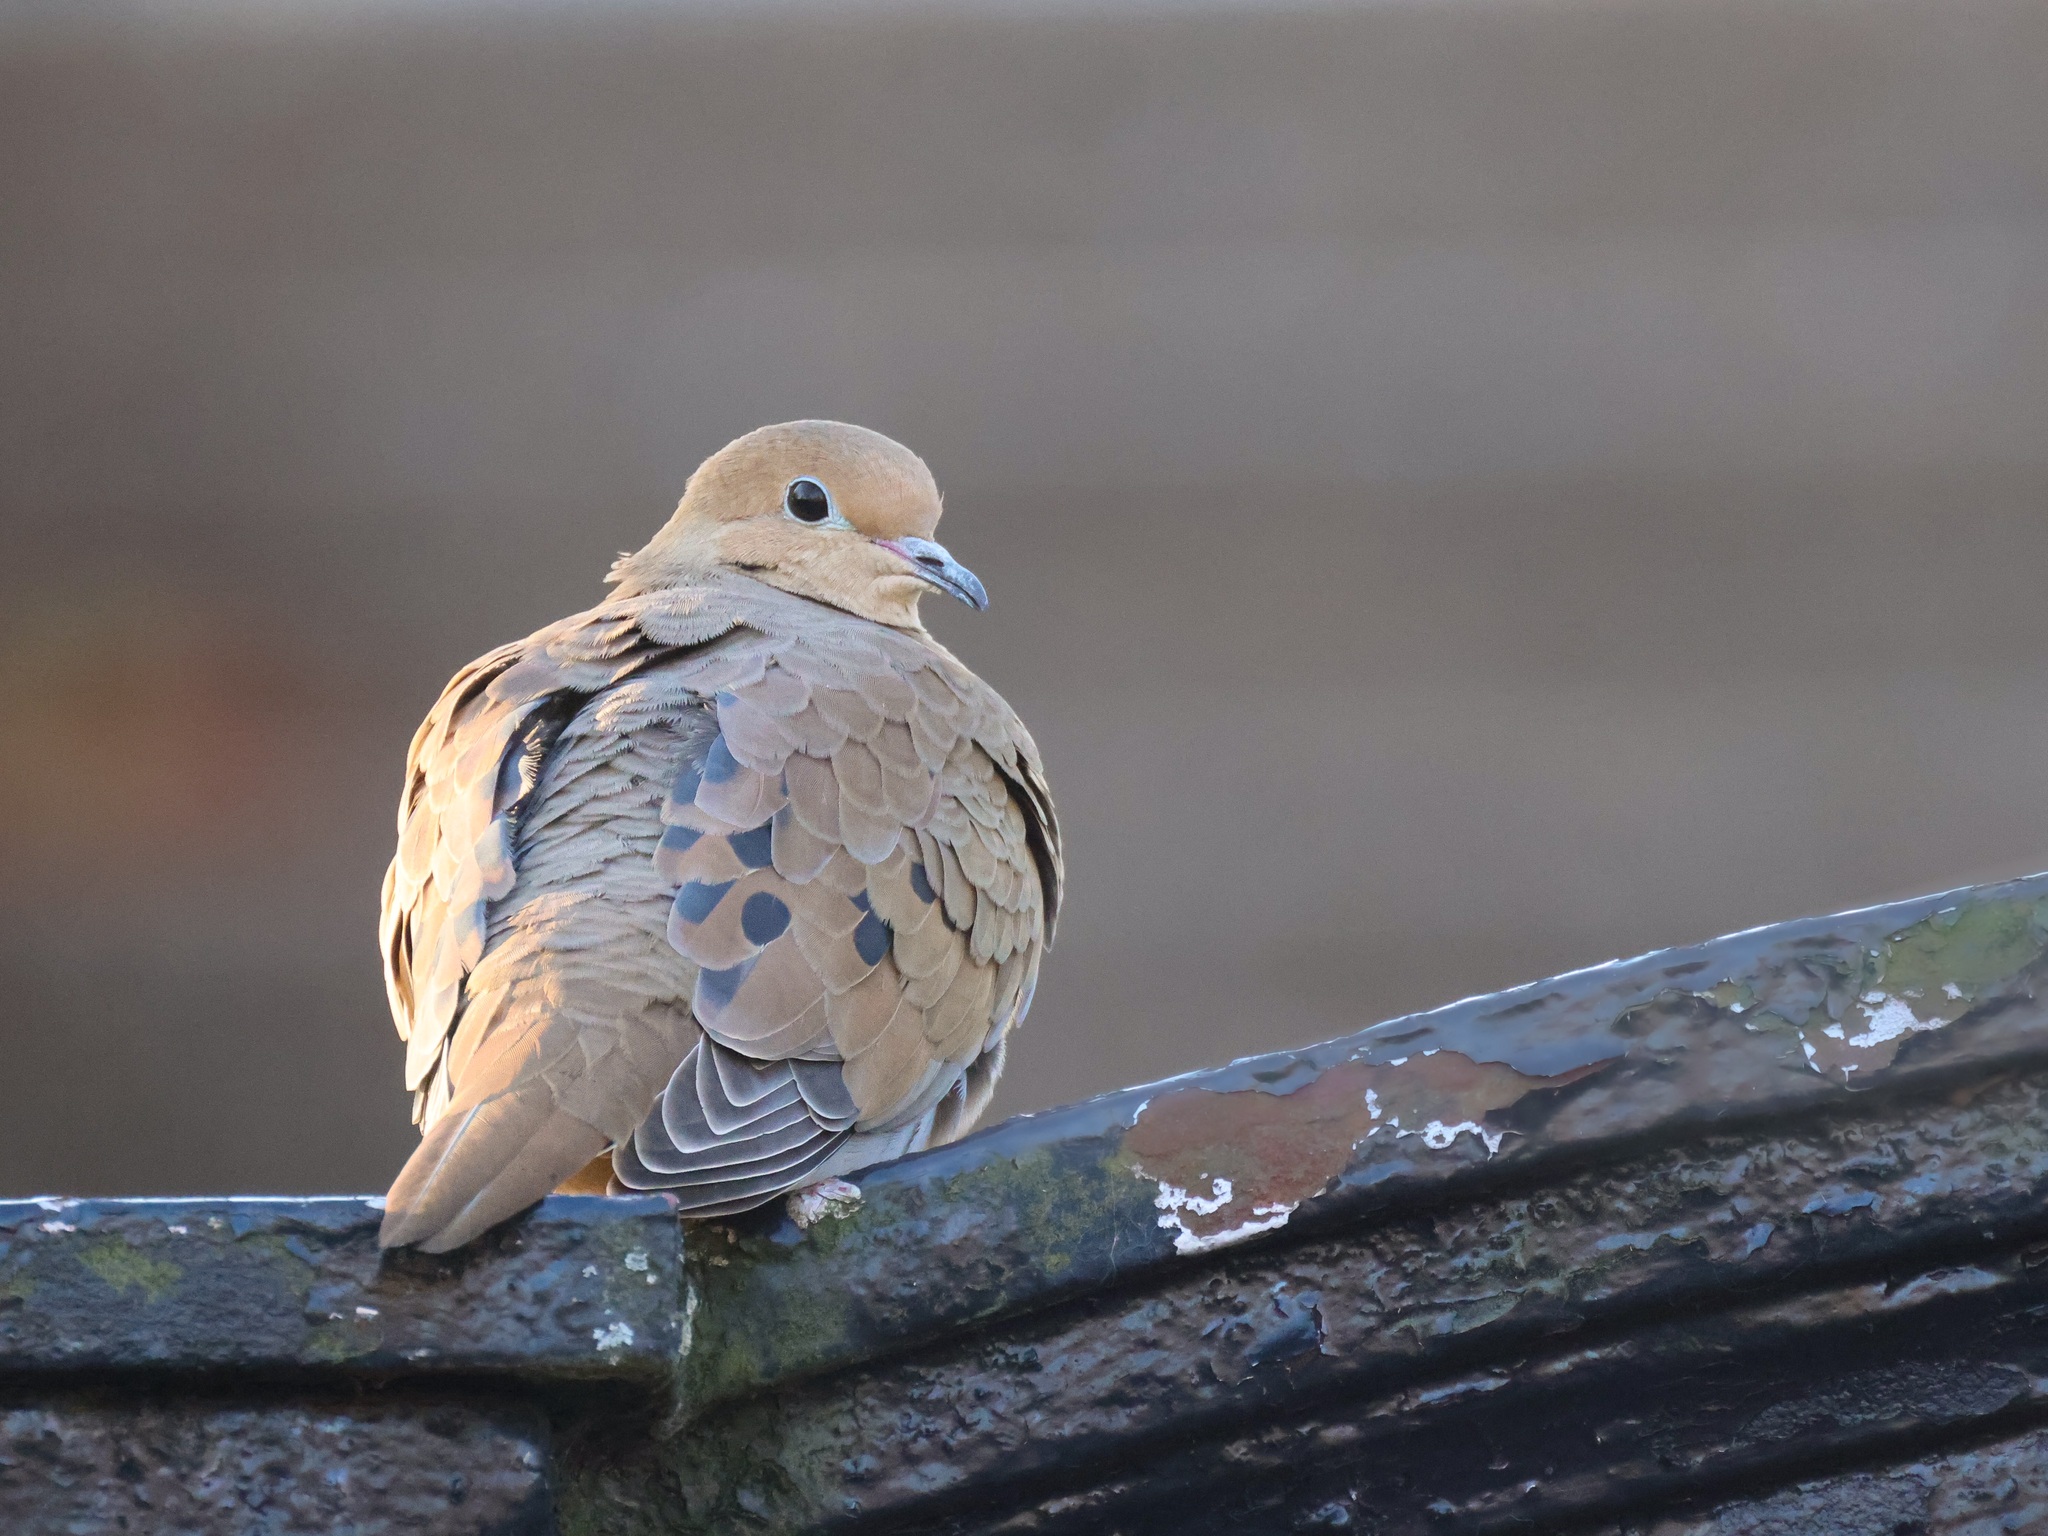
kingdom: Animalia
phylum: Chordata
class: Aves
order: Columbiformes
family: Columbidae
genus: Zenaida
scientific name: Zenaida macroura
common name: Mourning dove
